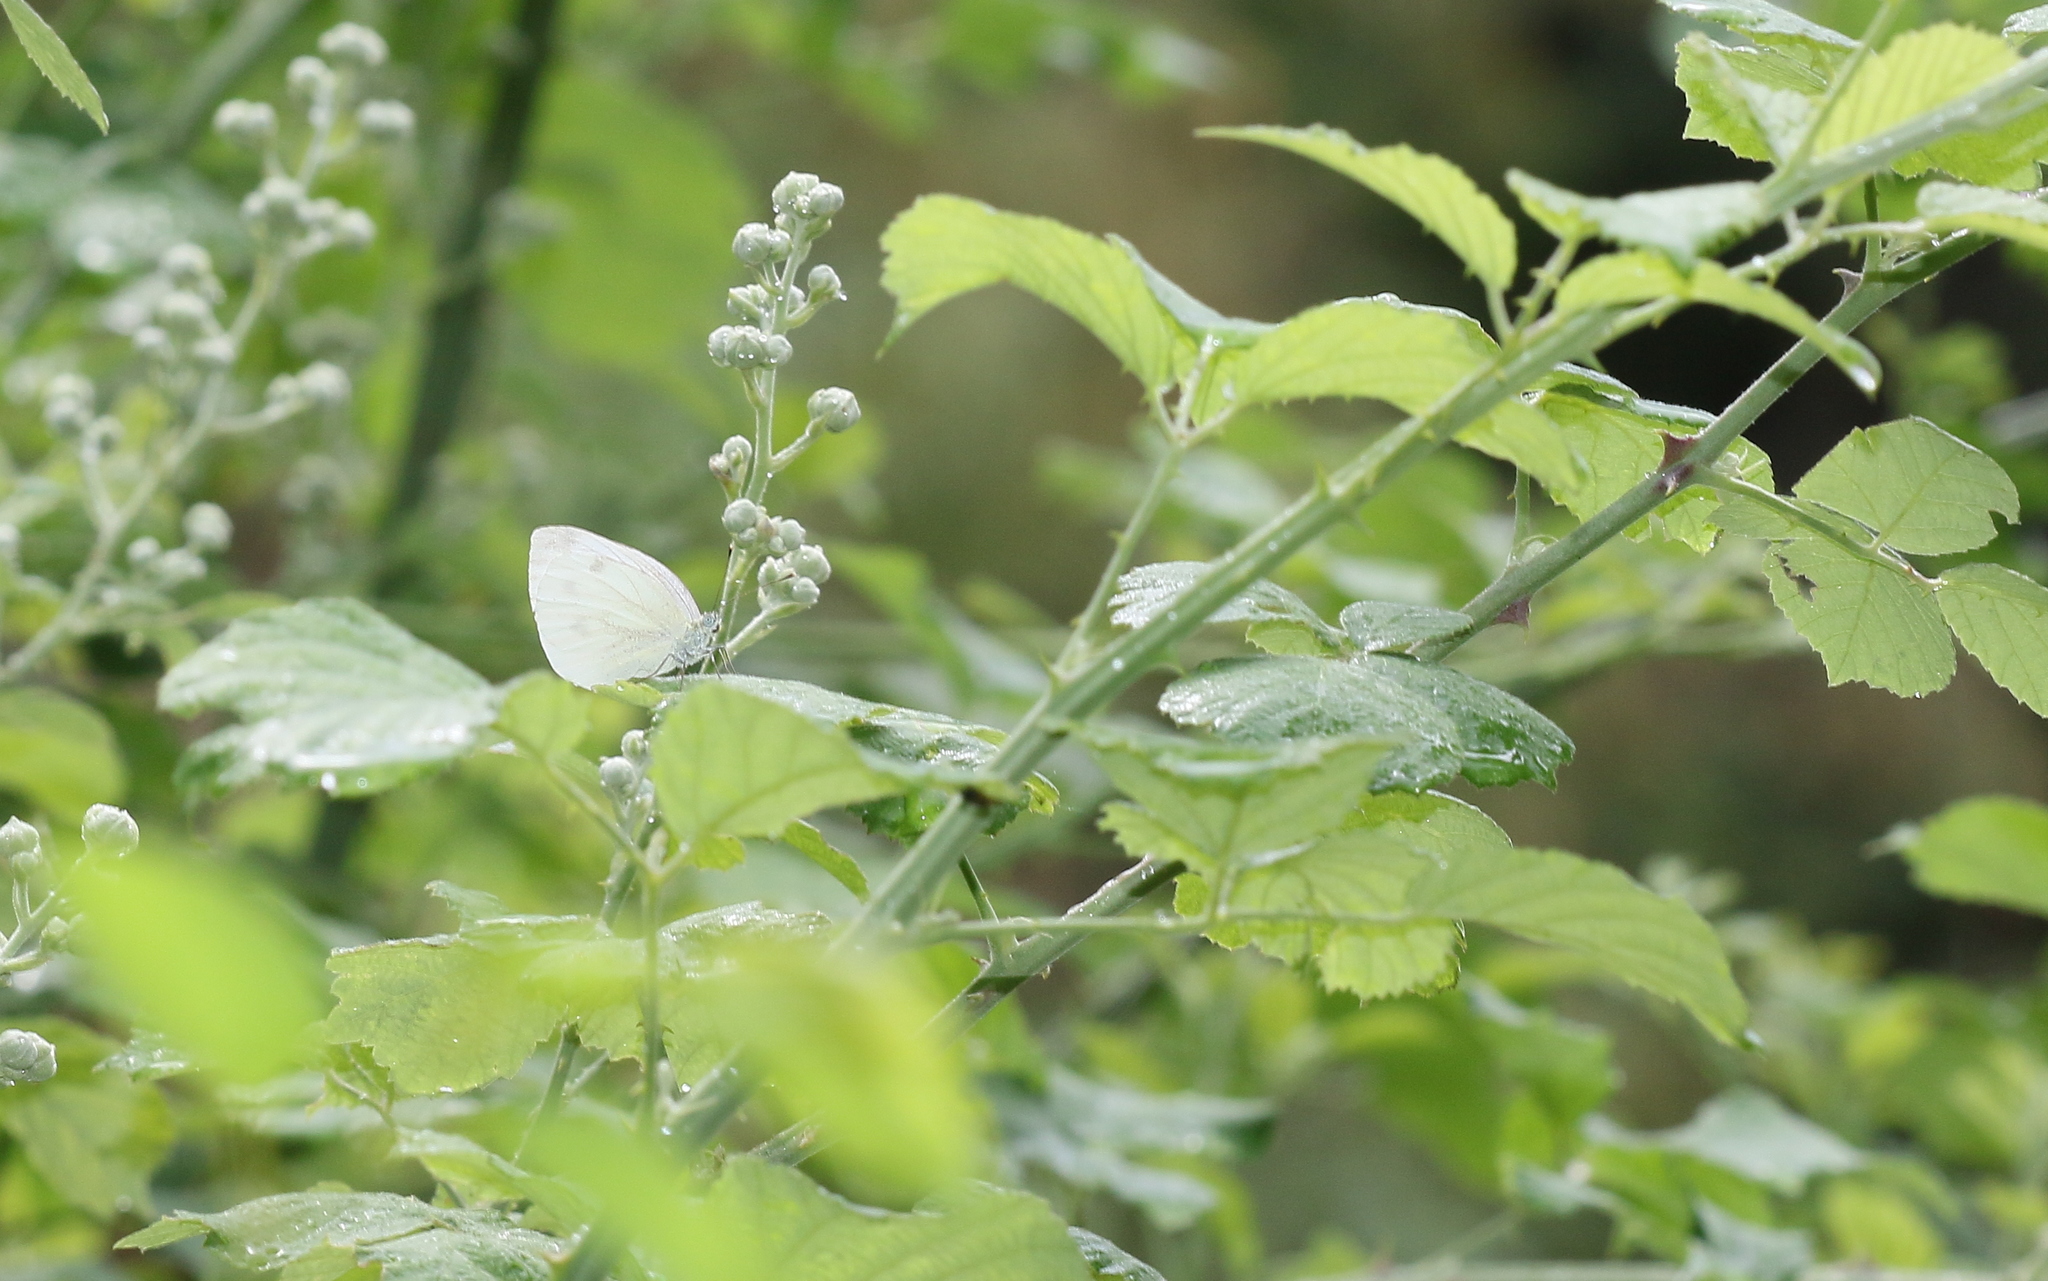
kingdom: Animalia
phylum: Arthropoda
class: Insecta
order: Lepidoptera
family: Pieridae
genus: Pieris
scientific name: Pieris napi
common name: Green-veined white
